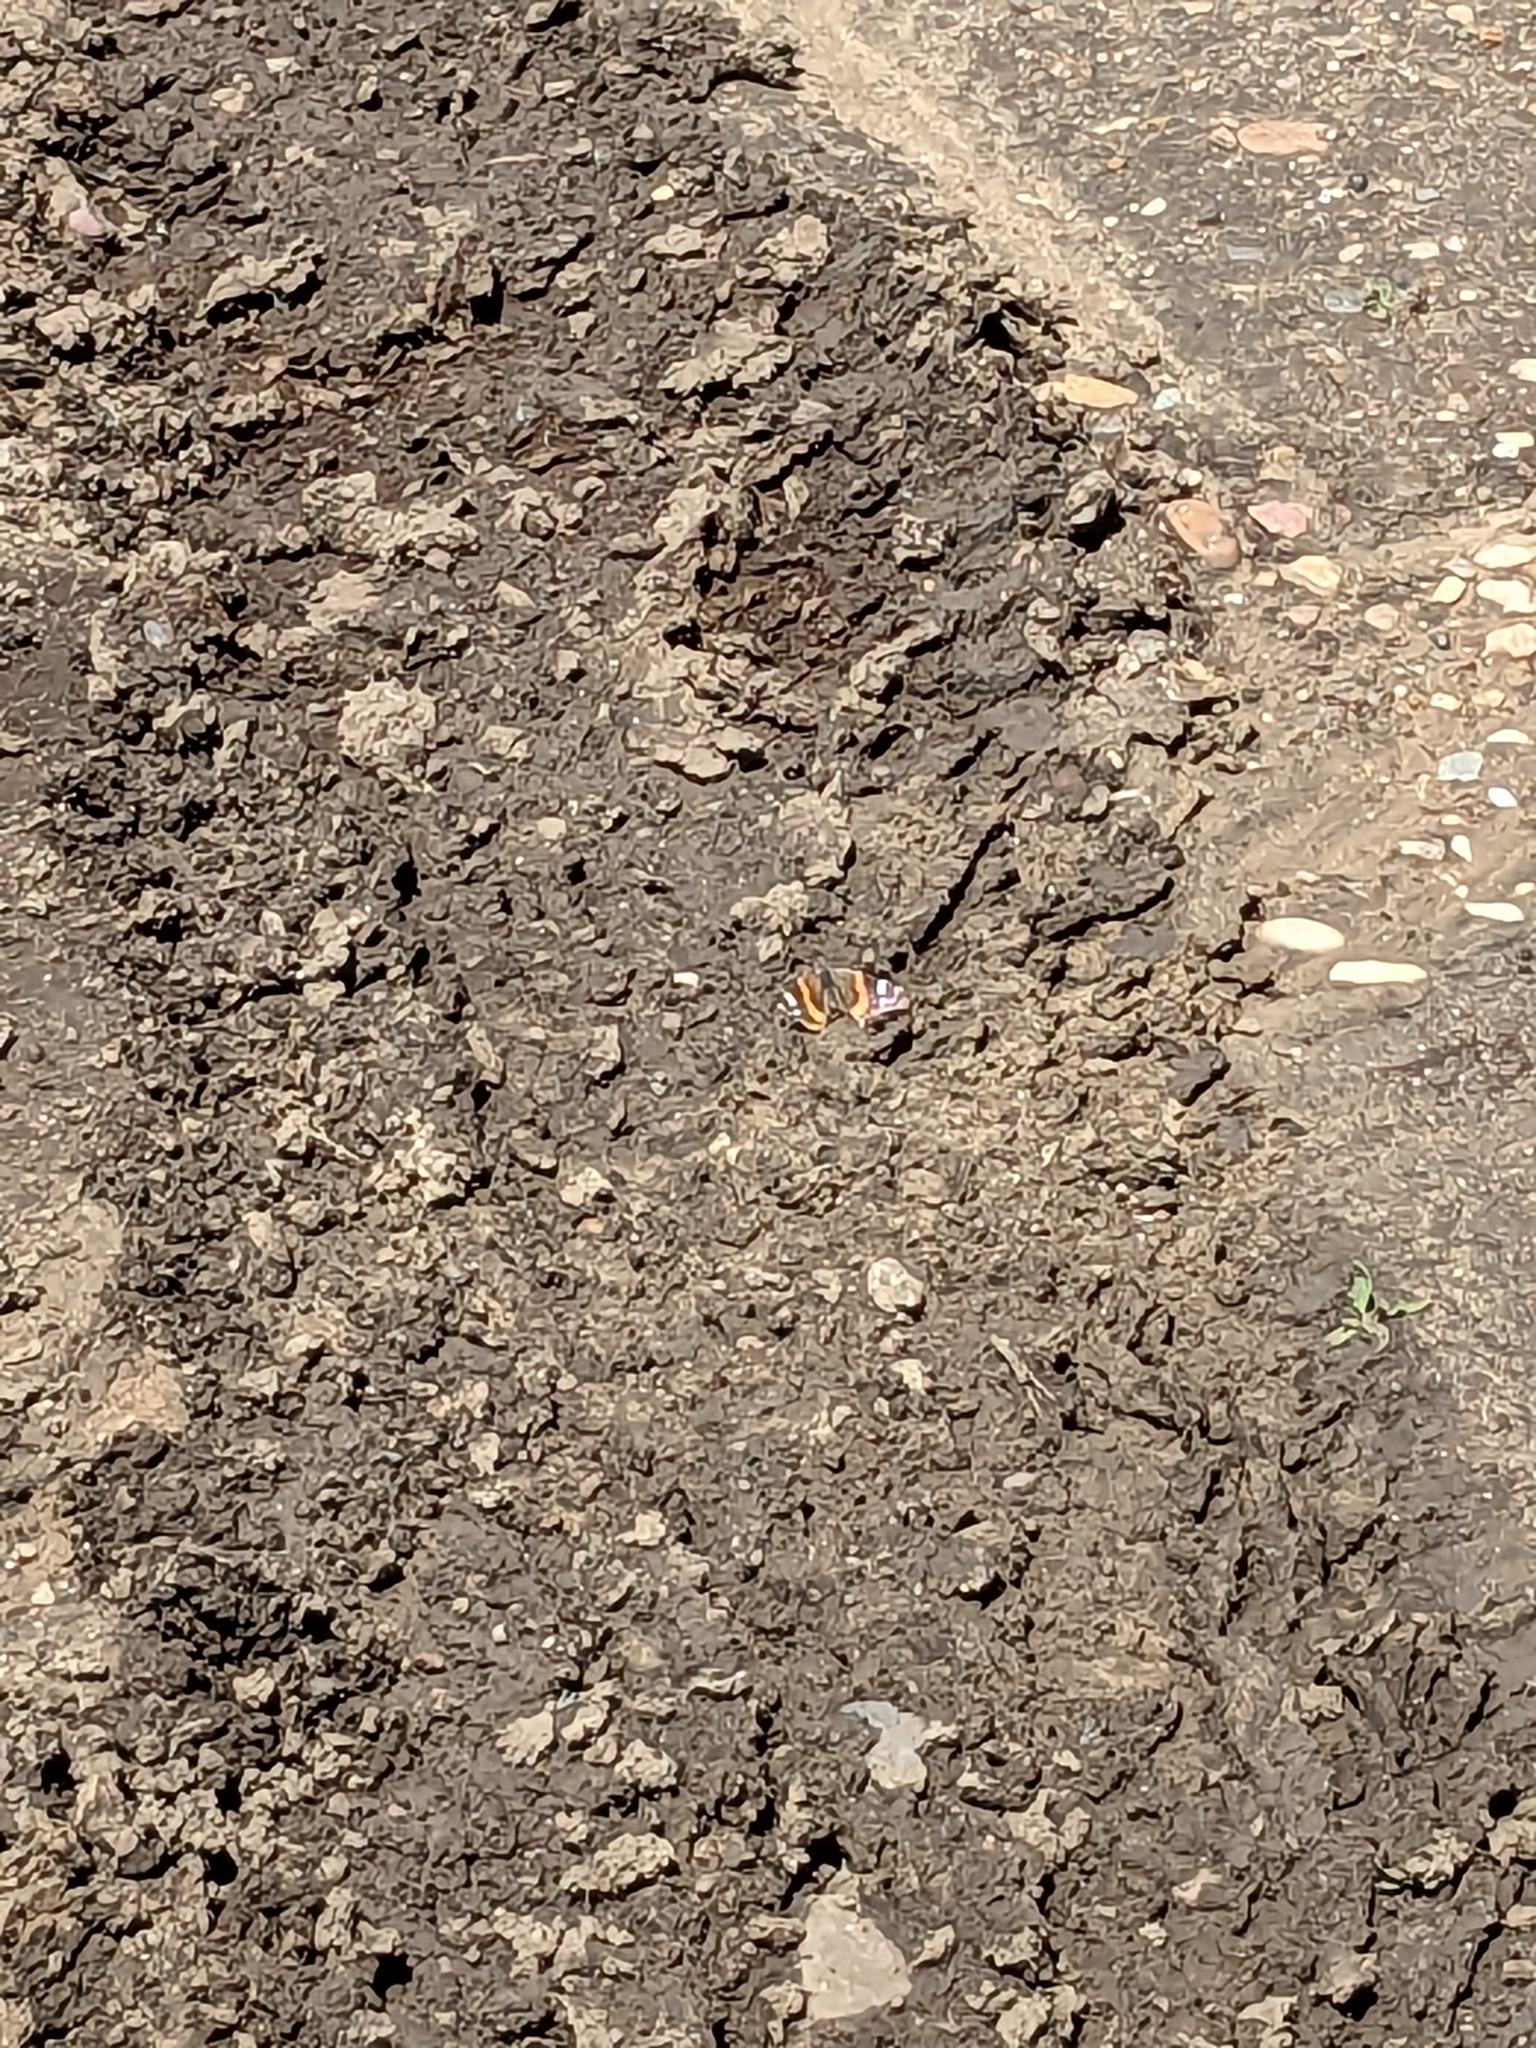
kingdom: Animalia
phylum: Arthropoda
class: Insecta
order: Lepidoptera
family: Nymphalidae
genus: Vanessa
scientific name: Vanessa atalanta
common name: Red admiral
